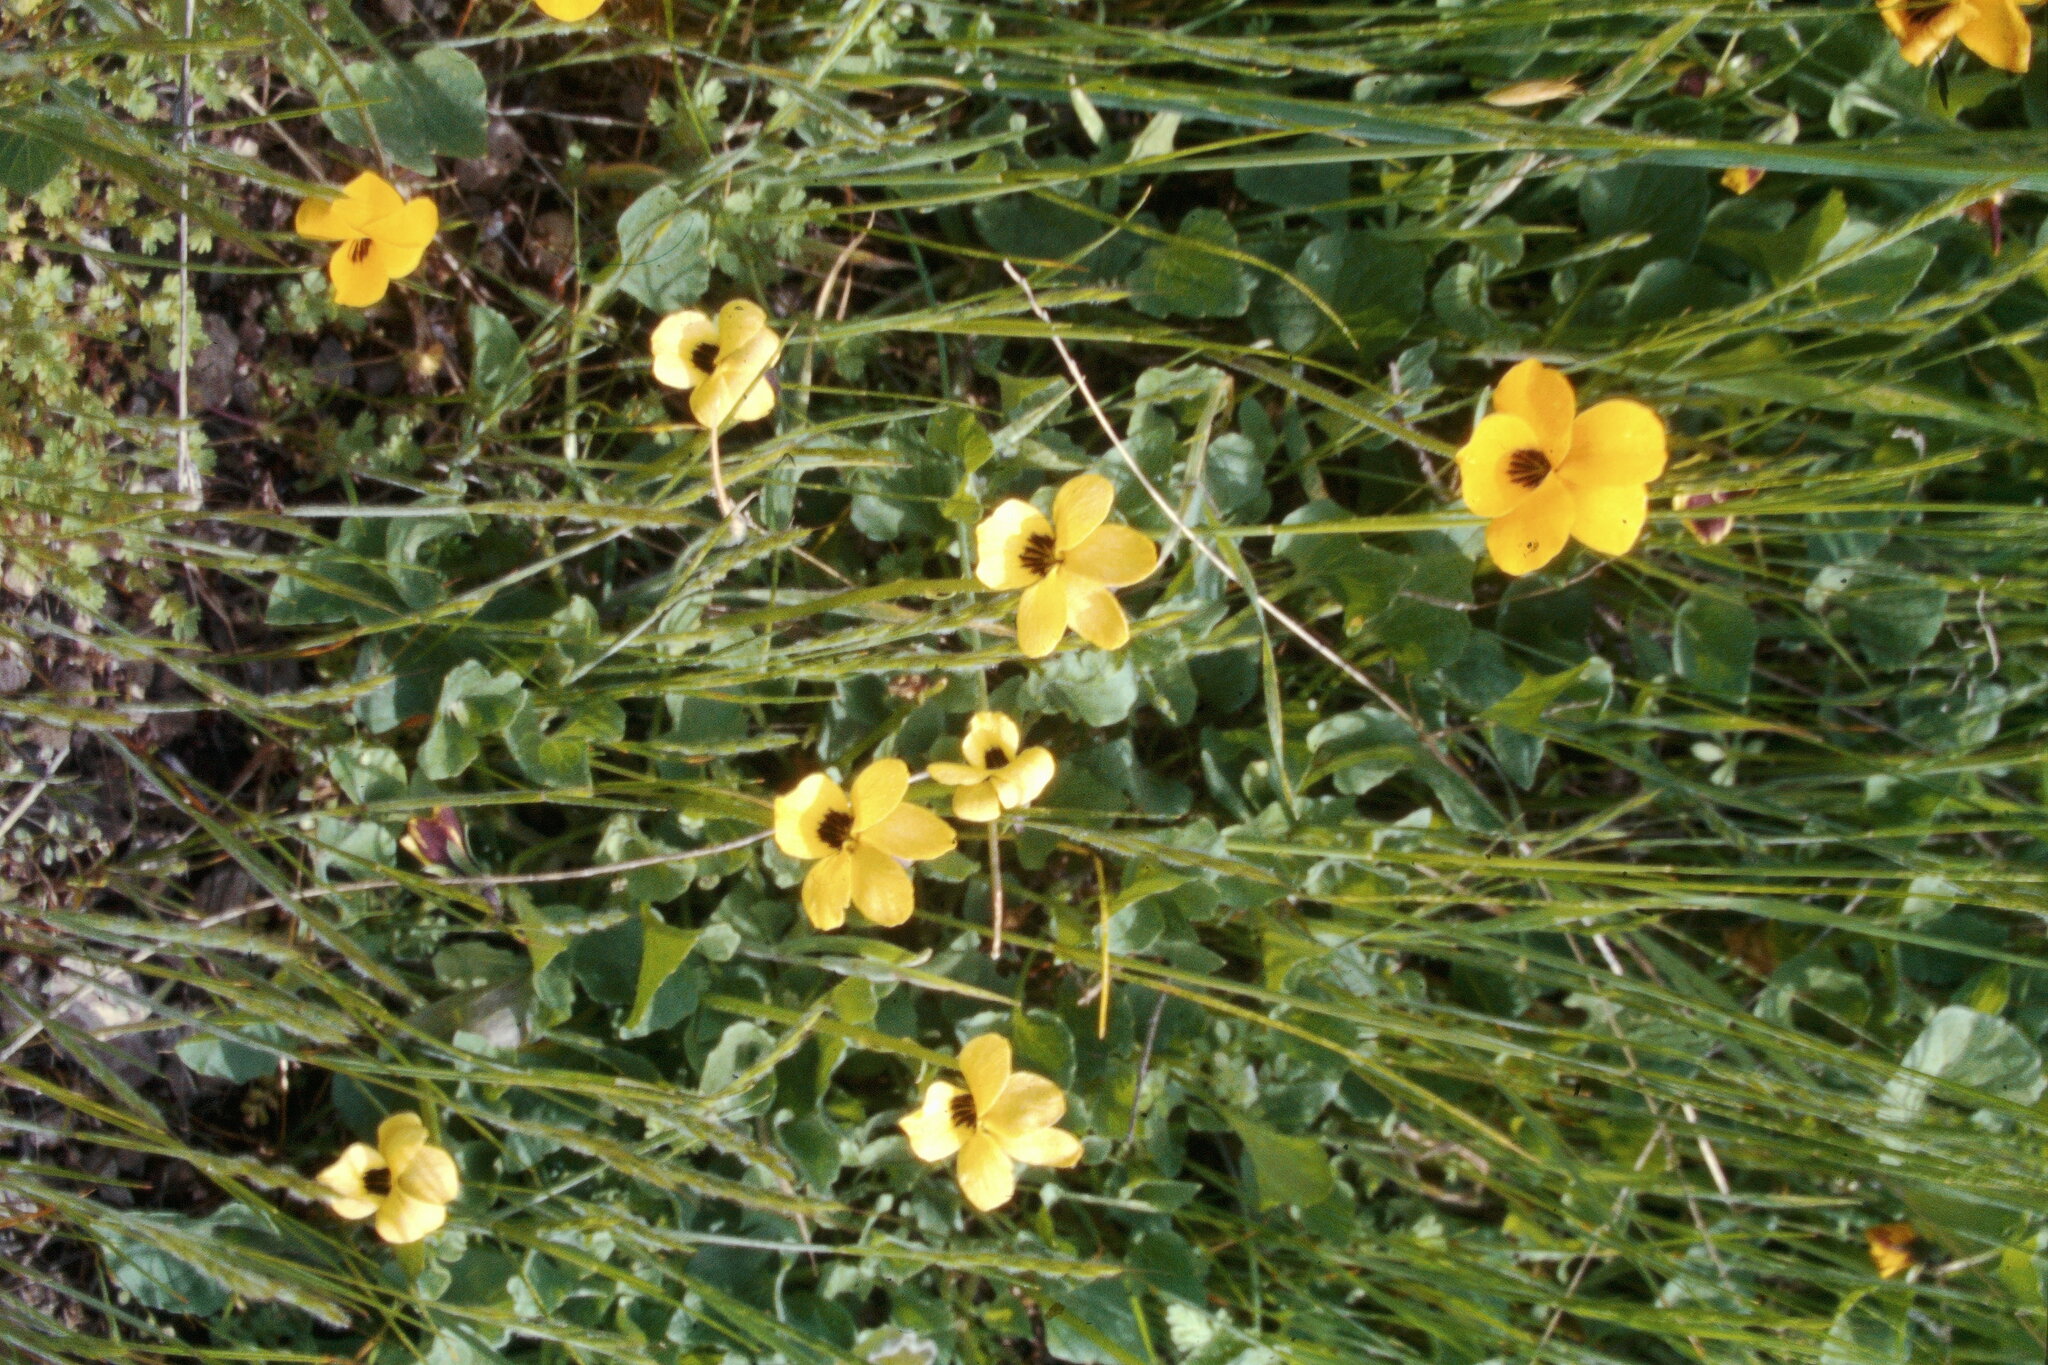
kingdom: Plantae
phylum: Tracheophyta
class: Magnoliopsida
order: Malpighiales
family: Violaceae
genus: Viola
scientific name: Viola pedunculata
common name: California golden violet
